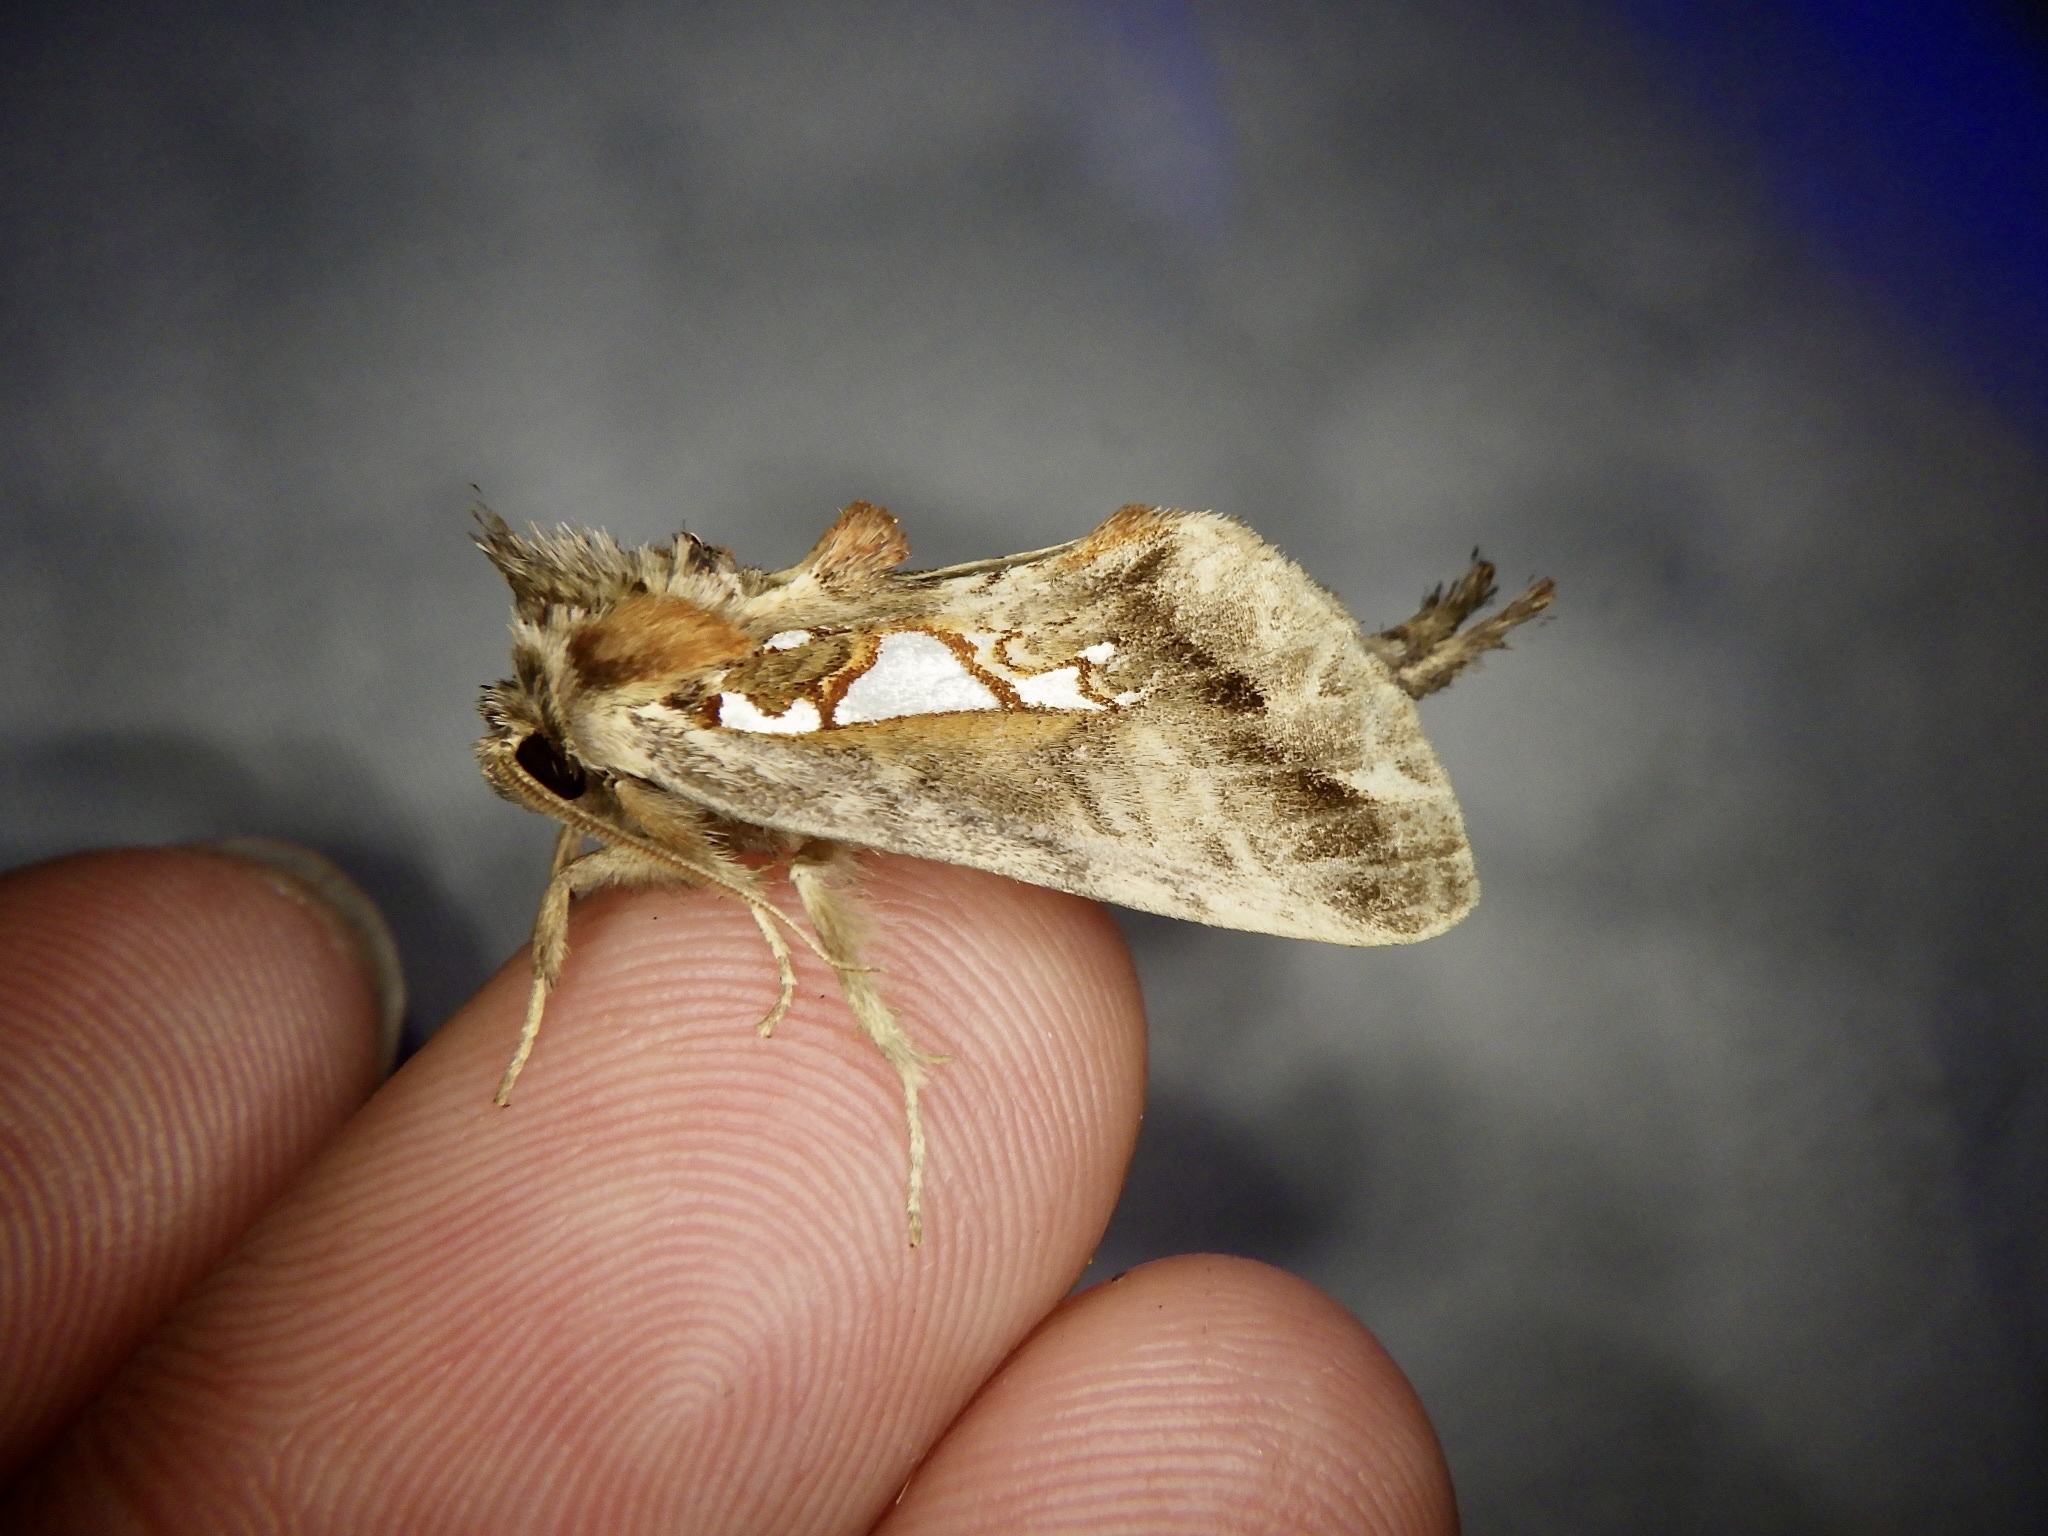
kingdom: Animalia
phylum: Arthropoda
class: Insecta
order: Lepidoptera
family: Notodontidae
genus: Spatalia
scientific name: Spatalia doerriesi
